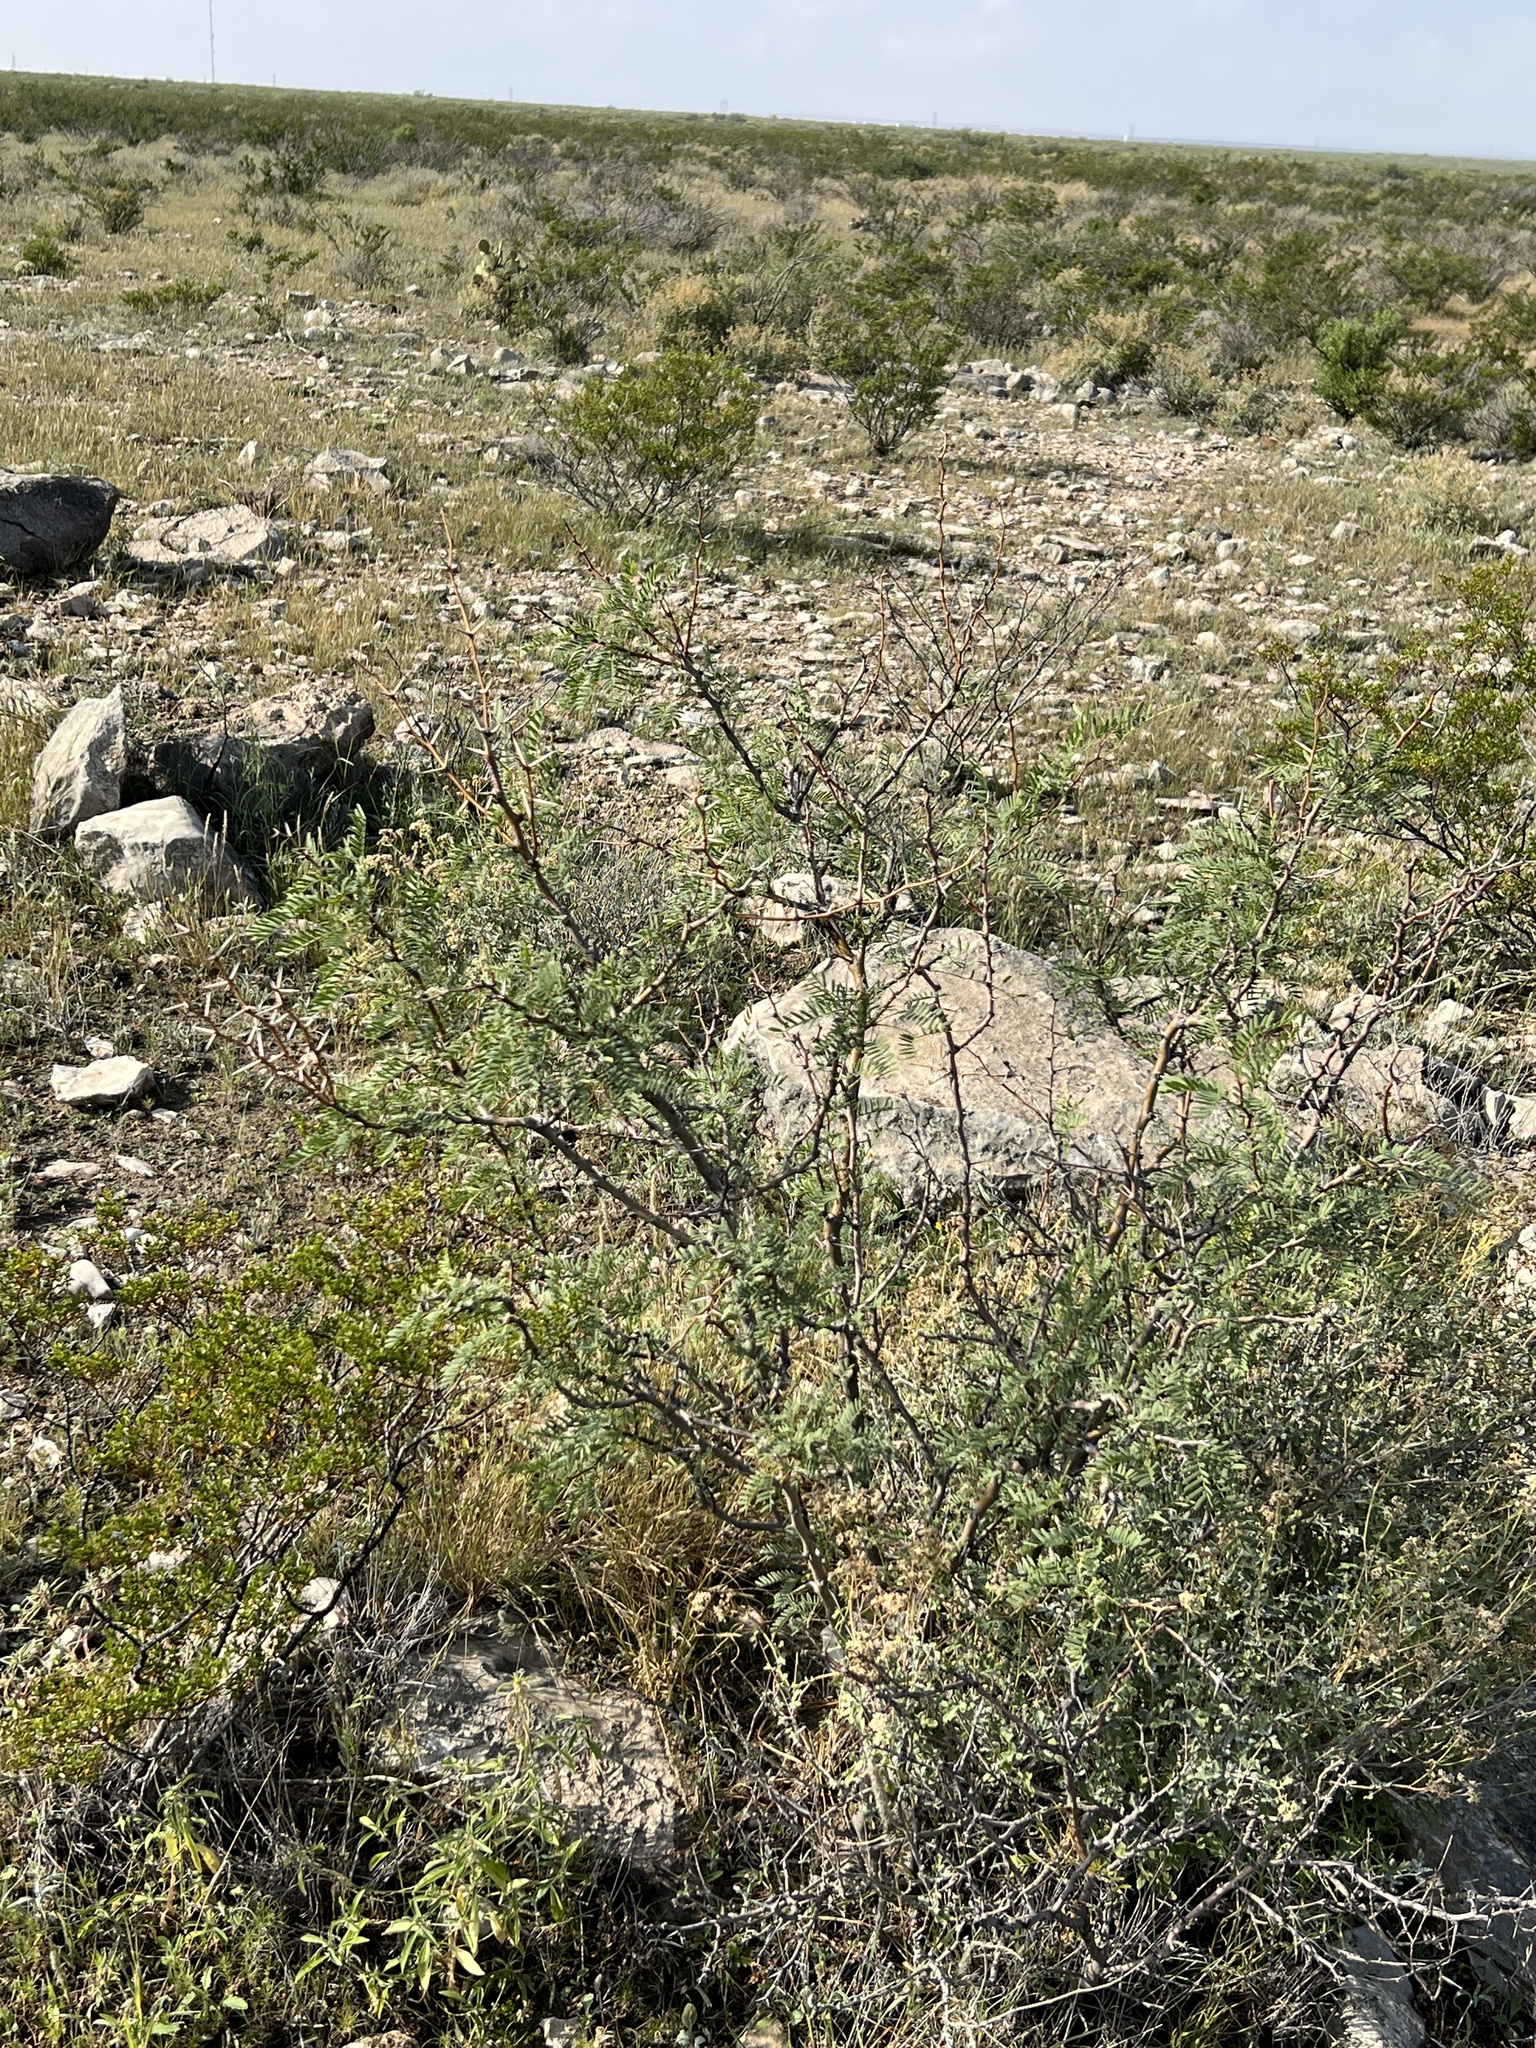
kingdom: Plantae
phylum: Tracheophyta
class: Magnoliopsida
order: Fabales
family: Fabaceae
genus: Prosopis
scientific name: Prosopis glandulosa
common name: Honey mesquite
